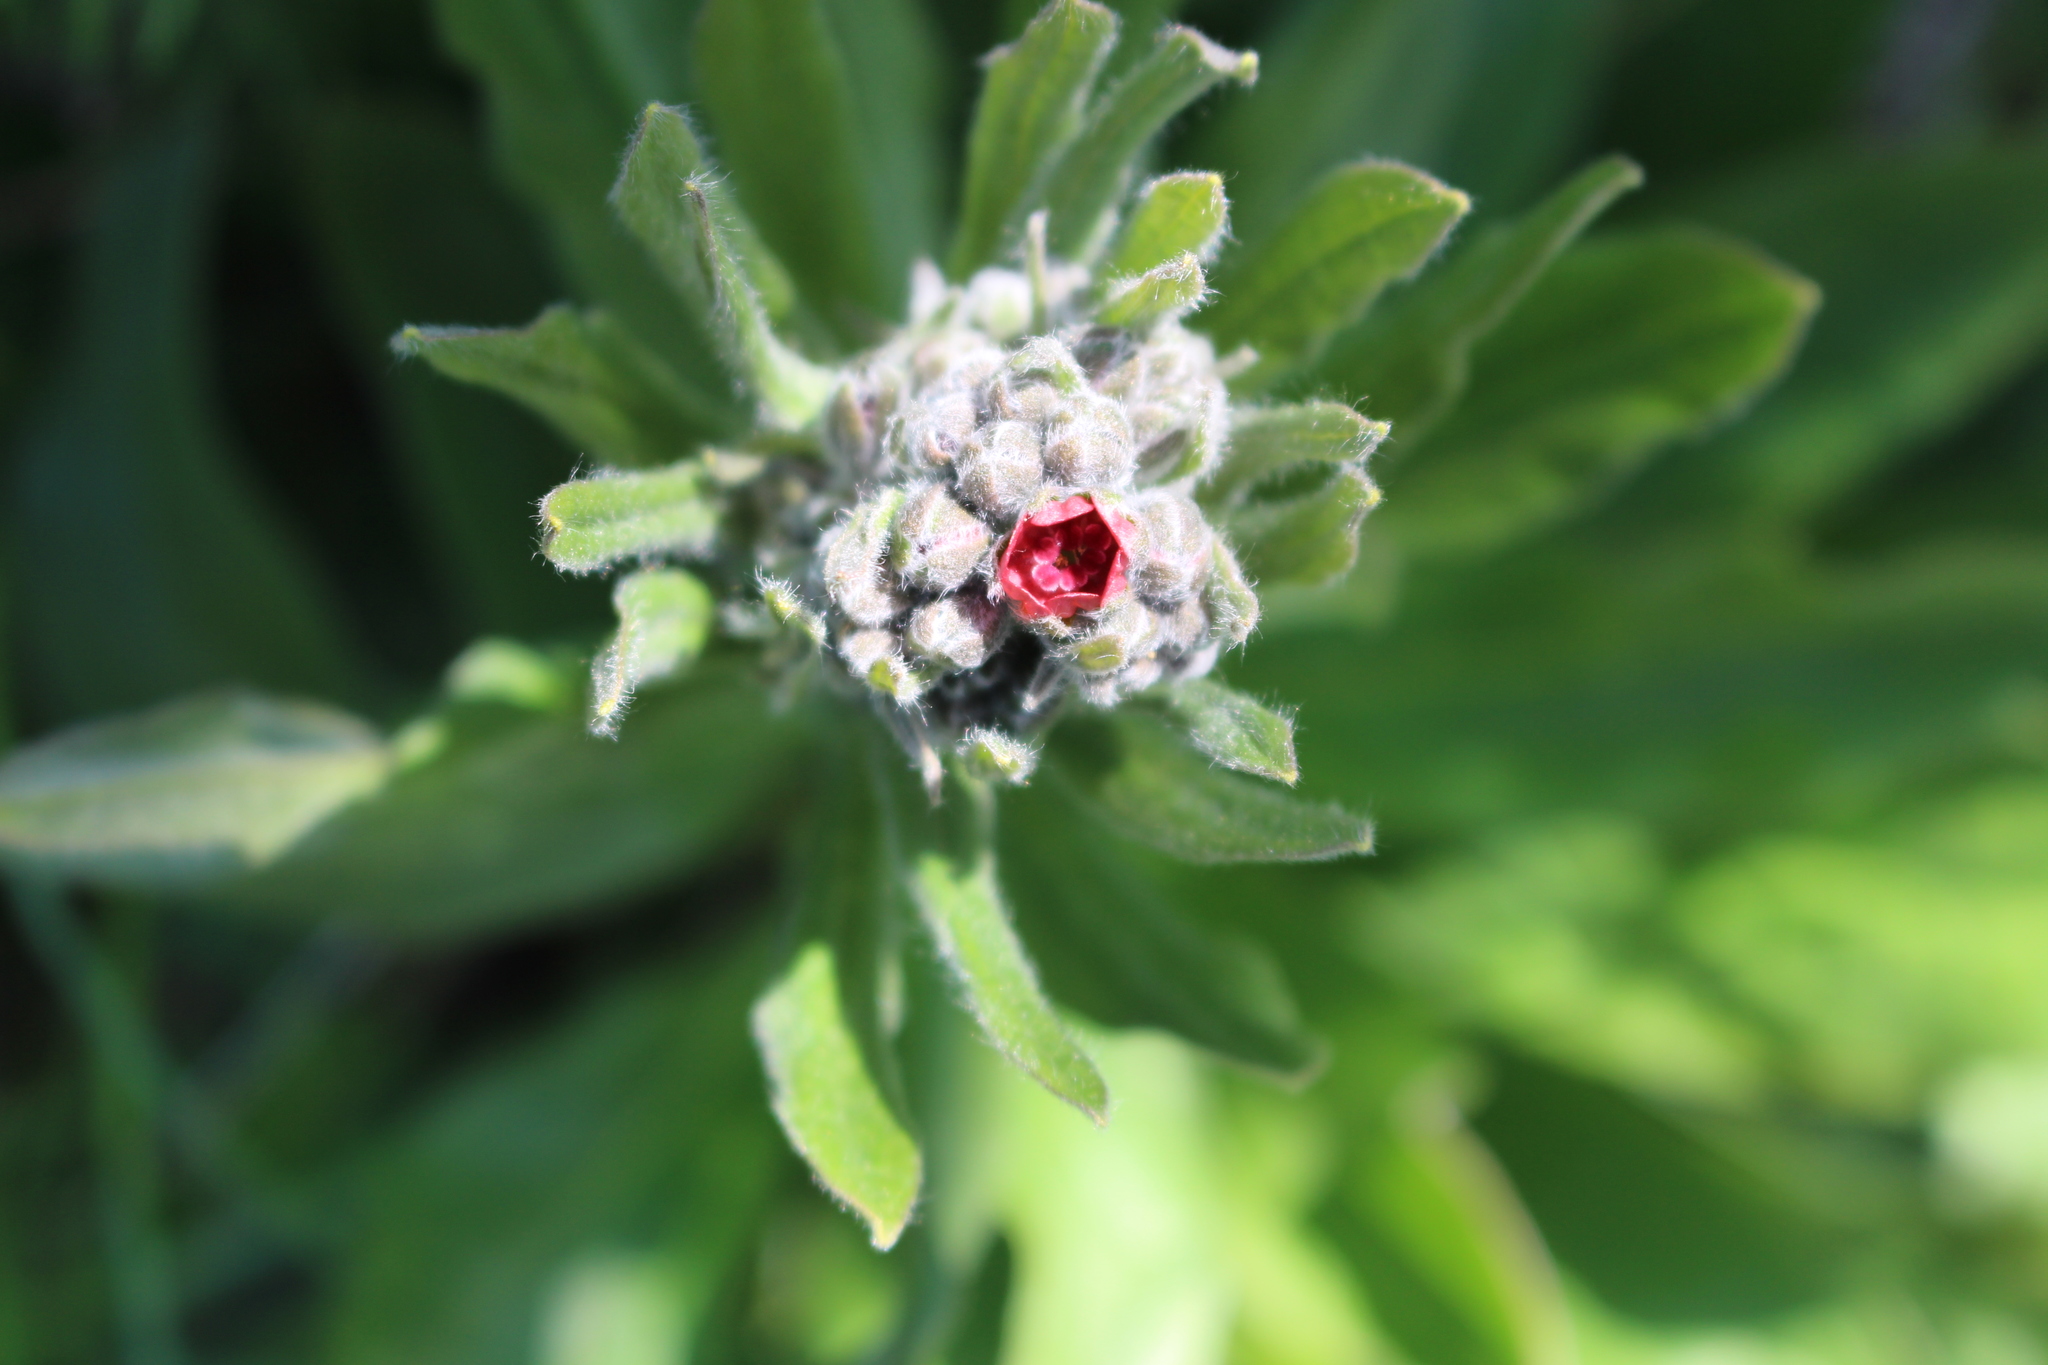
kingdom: Plantae
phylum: Tracheophyta
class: Magnoliopsida
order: Boraginales
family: Boraginaceae
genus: Cynoglossum
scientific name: Cynoglossum officinale
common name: Hound's-tongue
